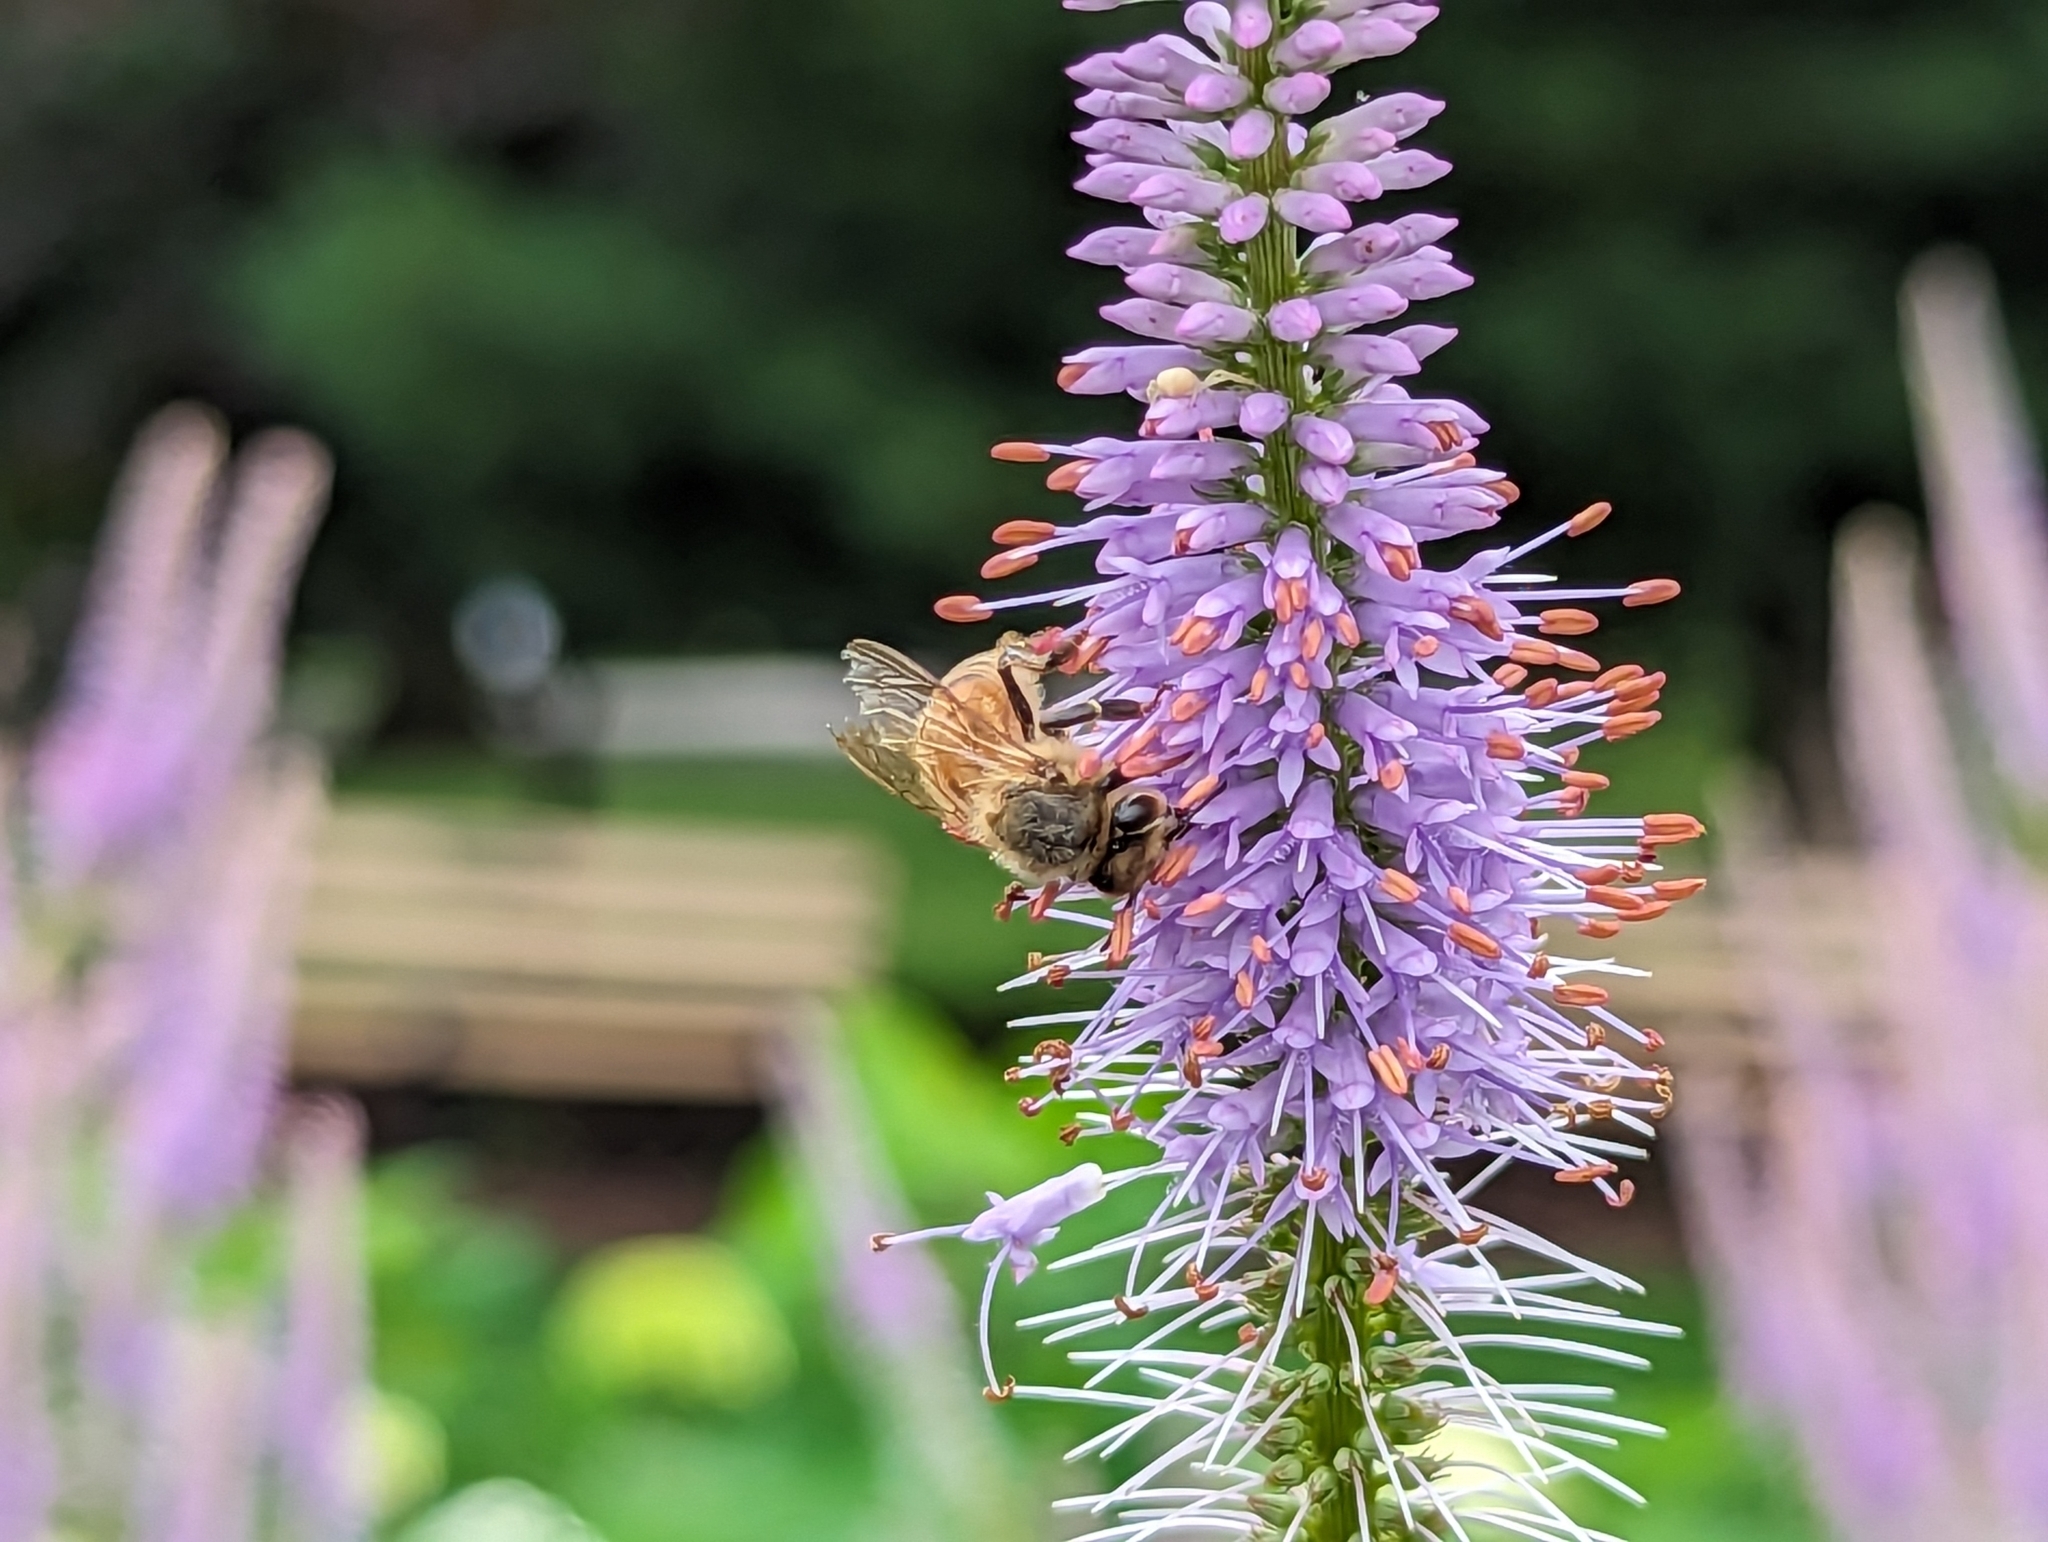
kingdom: Animalia
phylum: Arthropoda
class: Insecta
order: Hymenoptera
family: Apidae
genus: Apis
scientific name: Apis mellifera
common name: Honey bee
